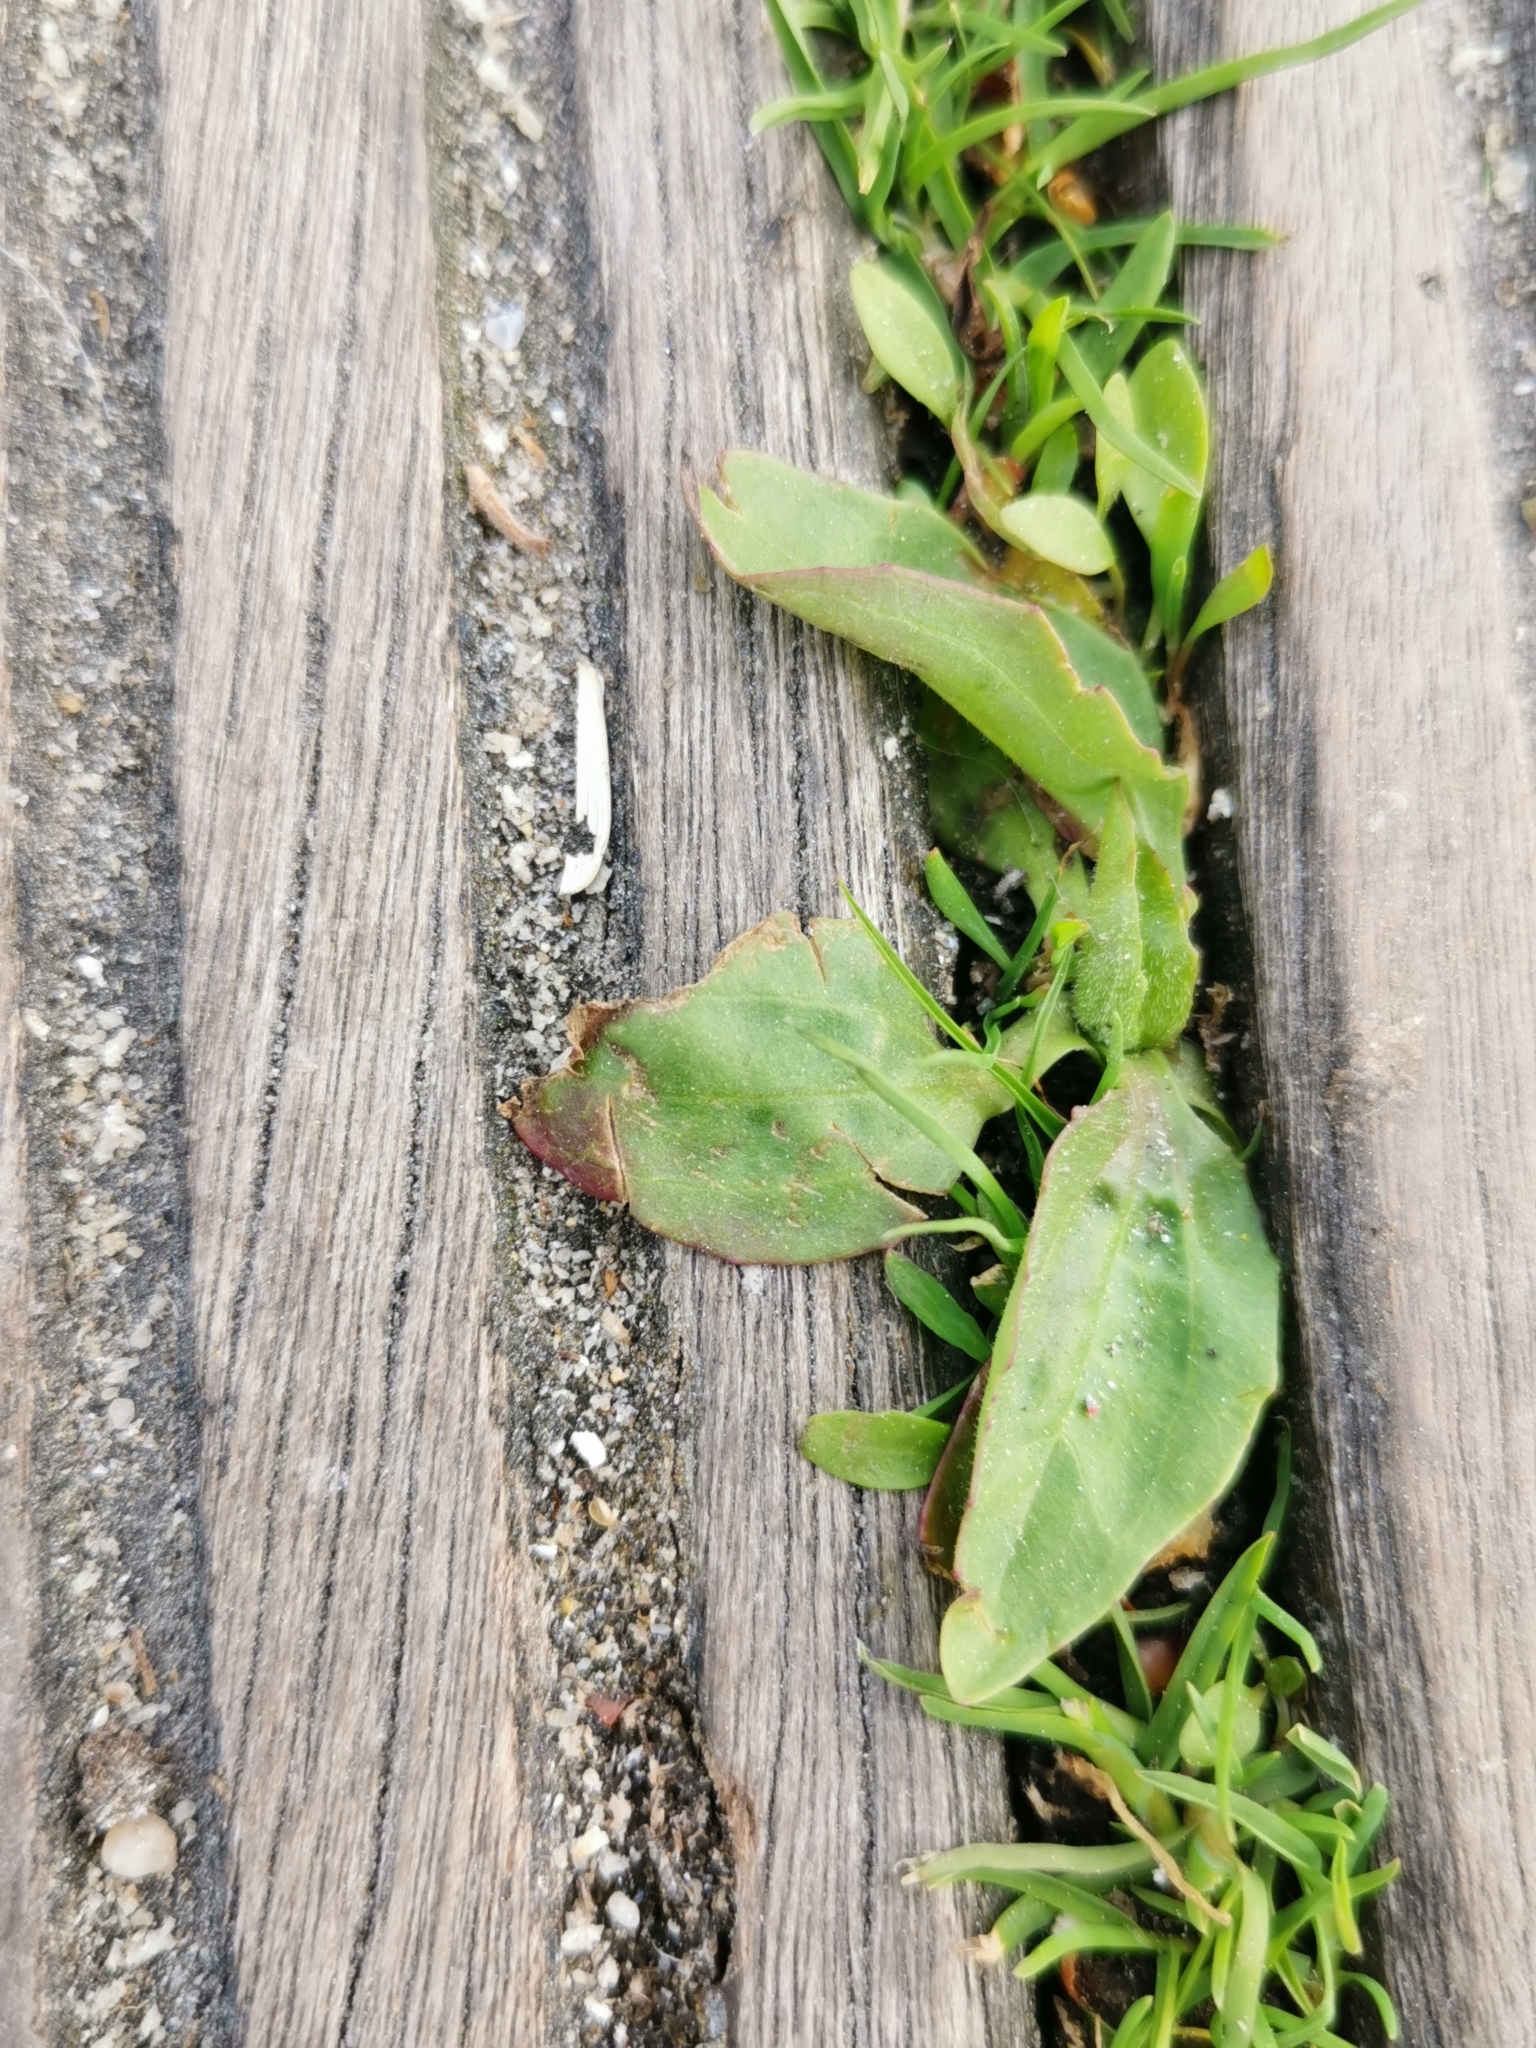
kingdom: Plantae
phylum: Tracheophyta
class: Magnoliopsida
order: Lamiales
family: Plantaginaceae
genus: Plantago
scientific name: Plantago major
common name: Common plantain
